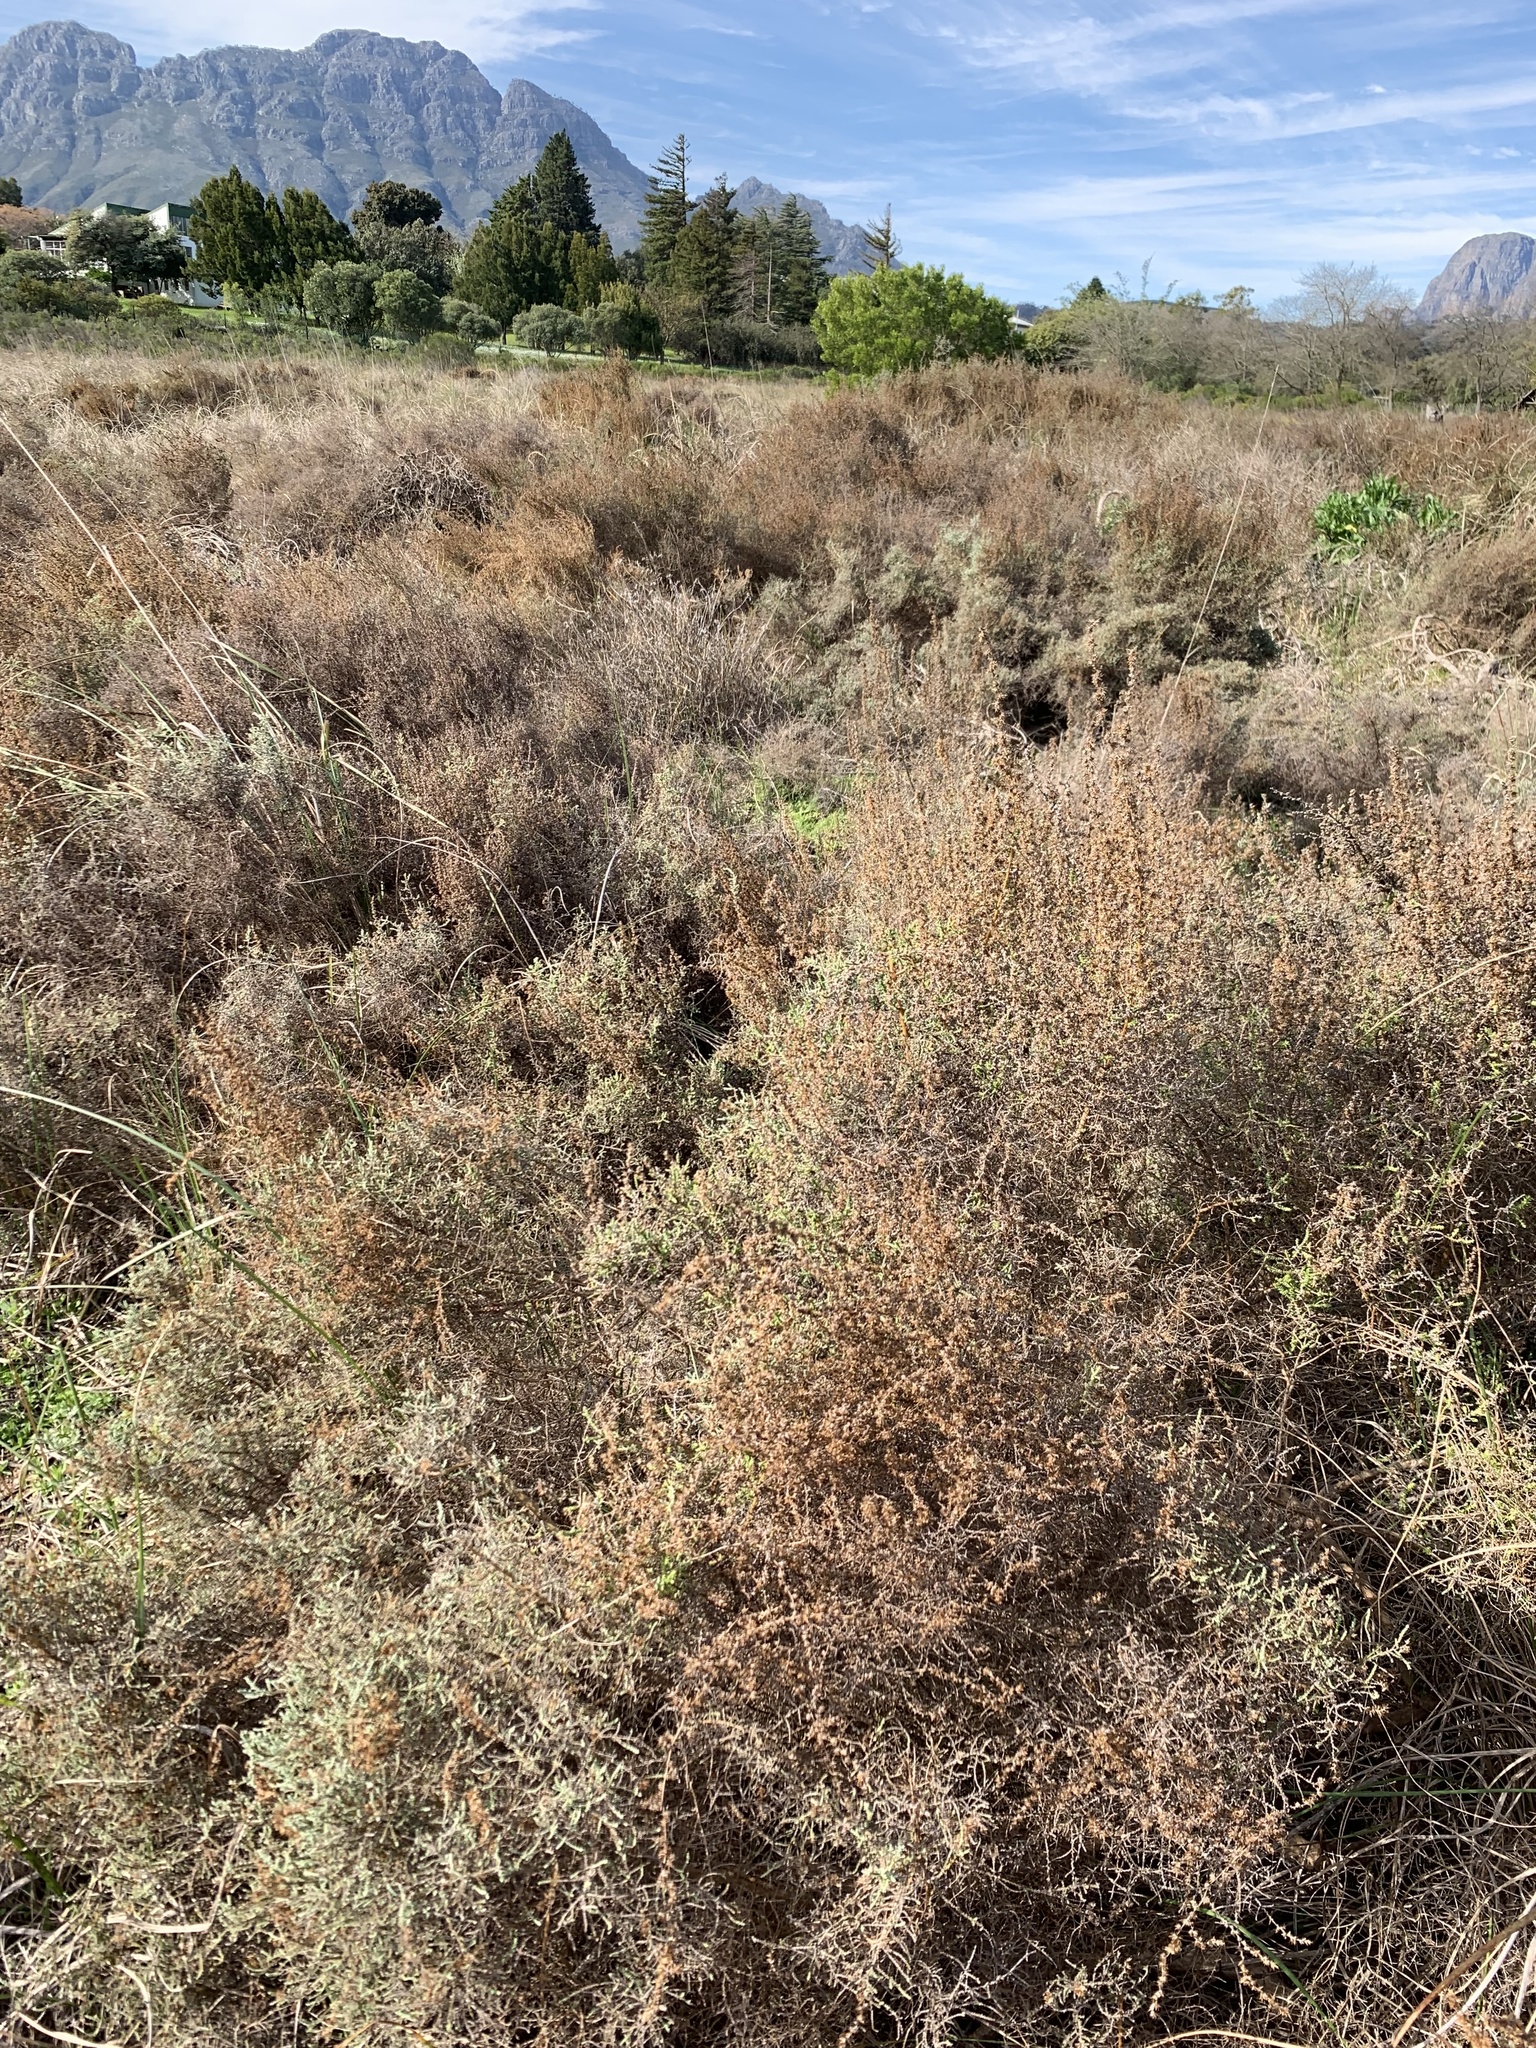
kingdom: Plantae
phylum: Tracheophyta
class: Magnoliopsida
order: Asterales
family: Asteraceae
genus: Seriphium
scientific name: Seriphium plumosum
